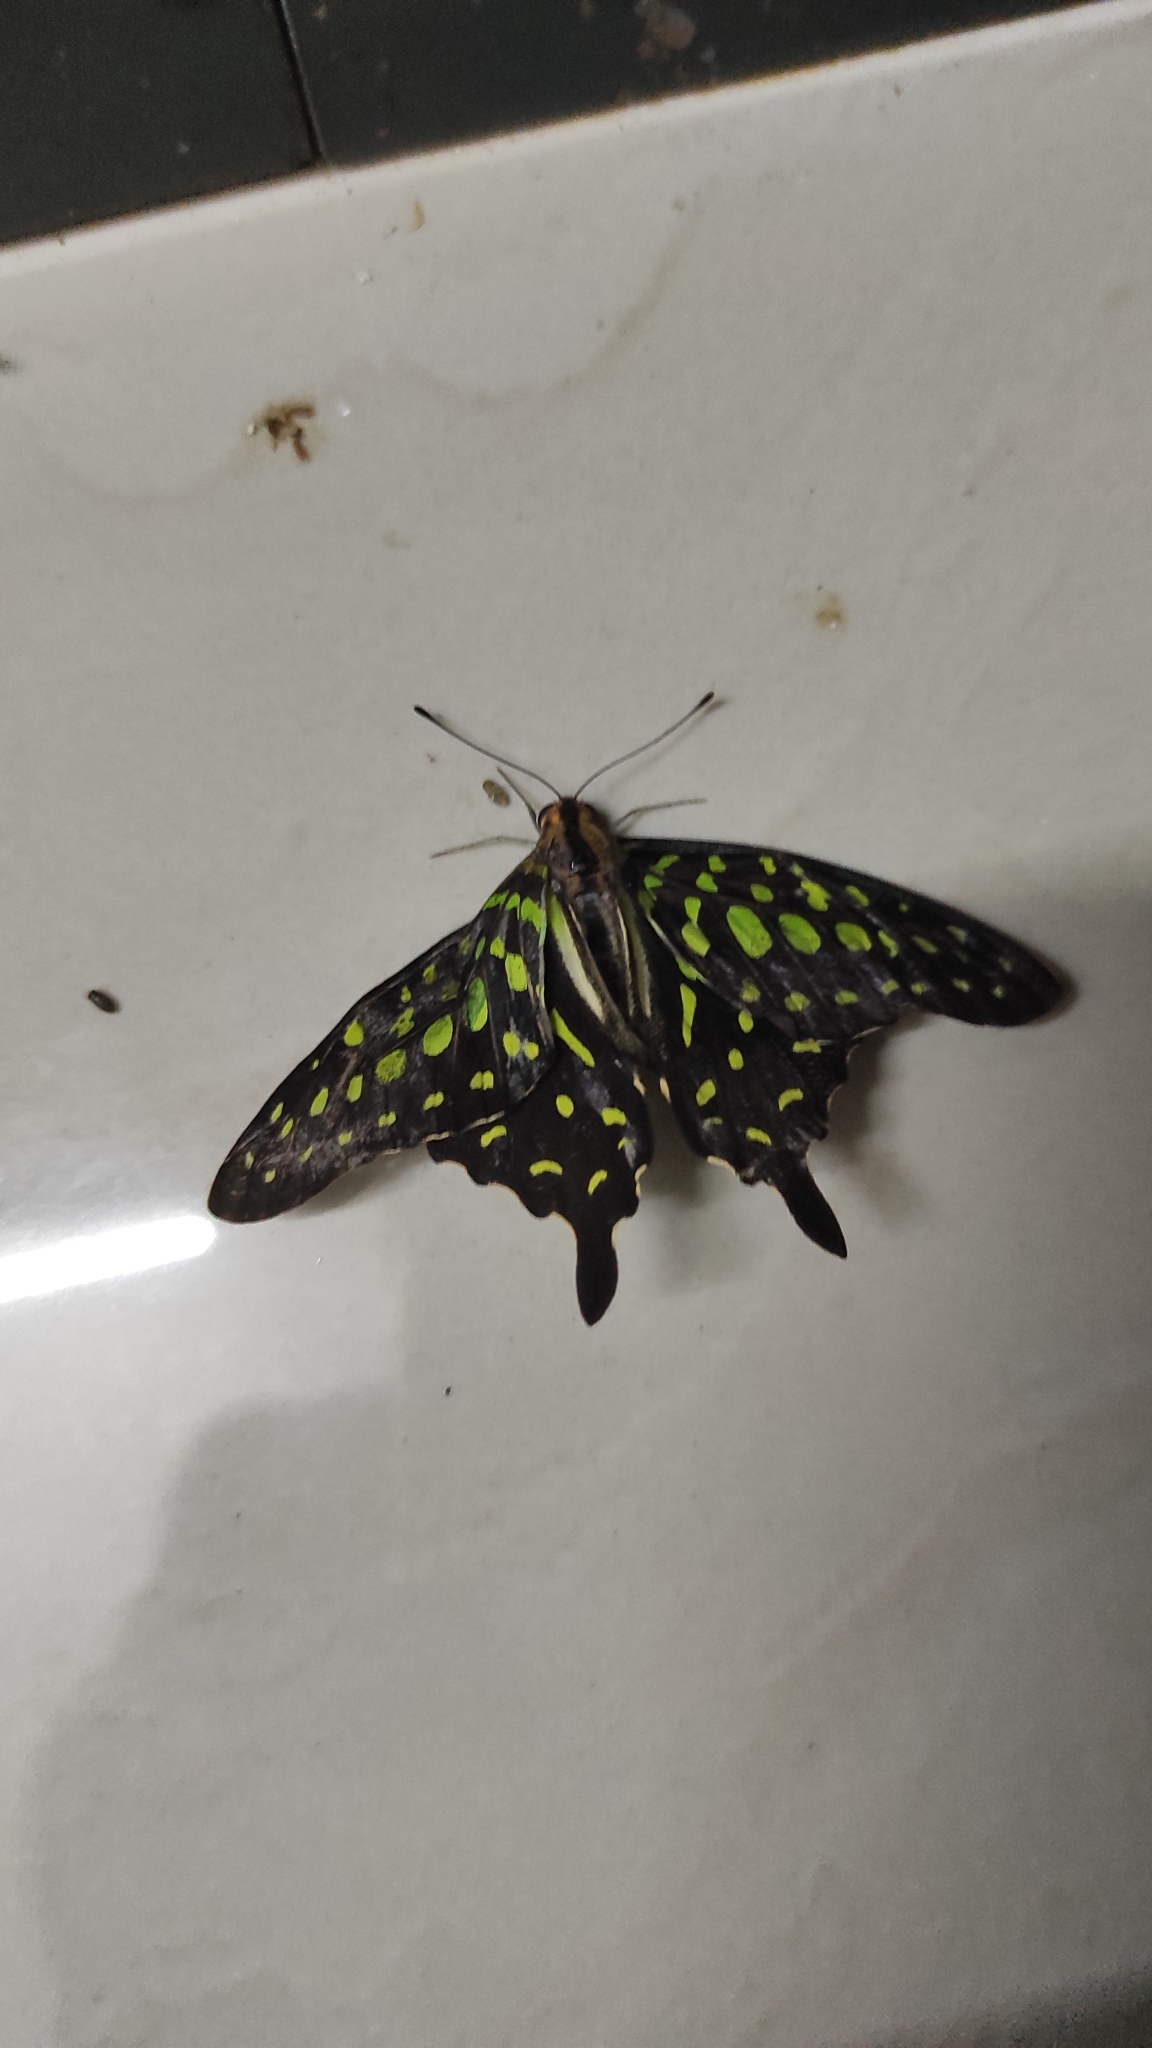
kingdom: Animalia
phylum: Arthropoda
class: Insecta
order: Lepidoptera
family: Papilionidae
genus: Graphium
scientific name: Graphium agamemnon
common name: Tailed jay
